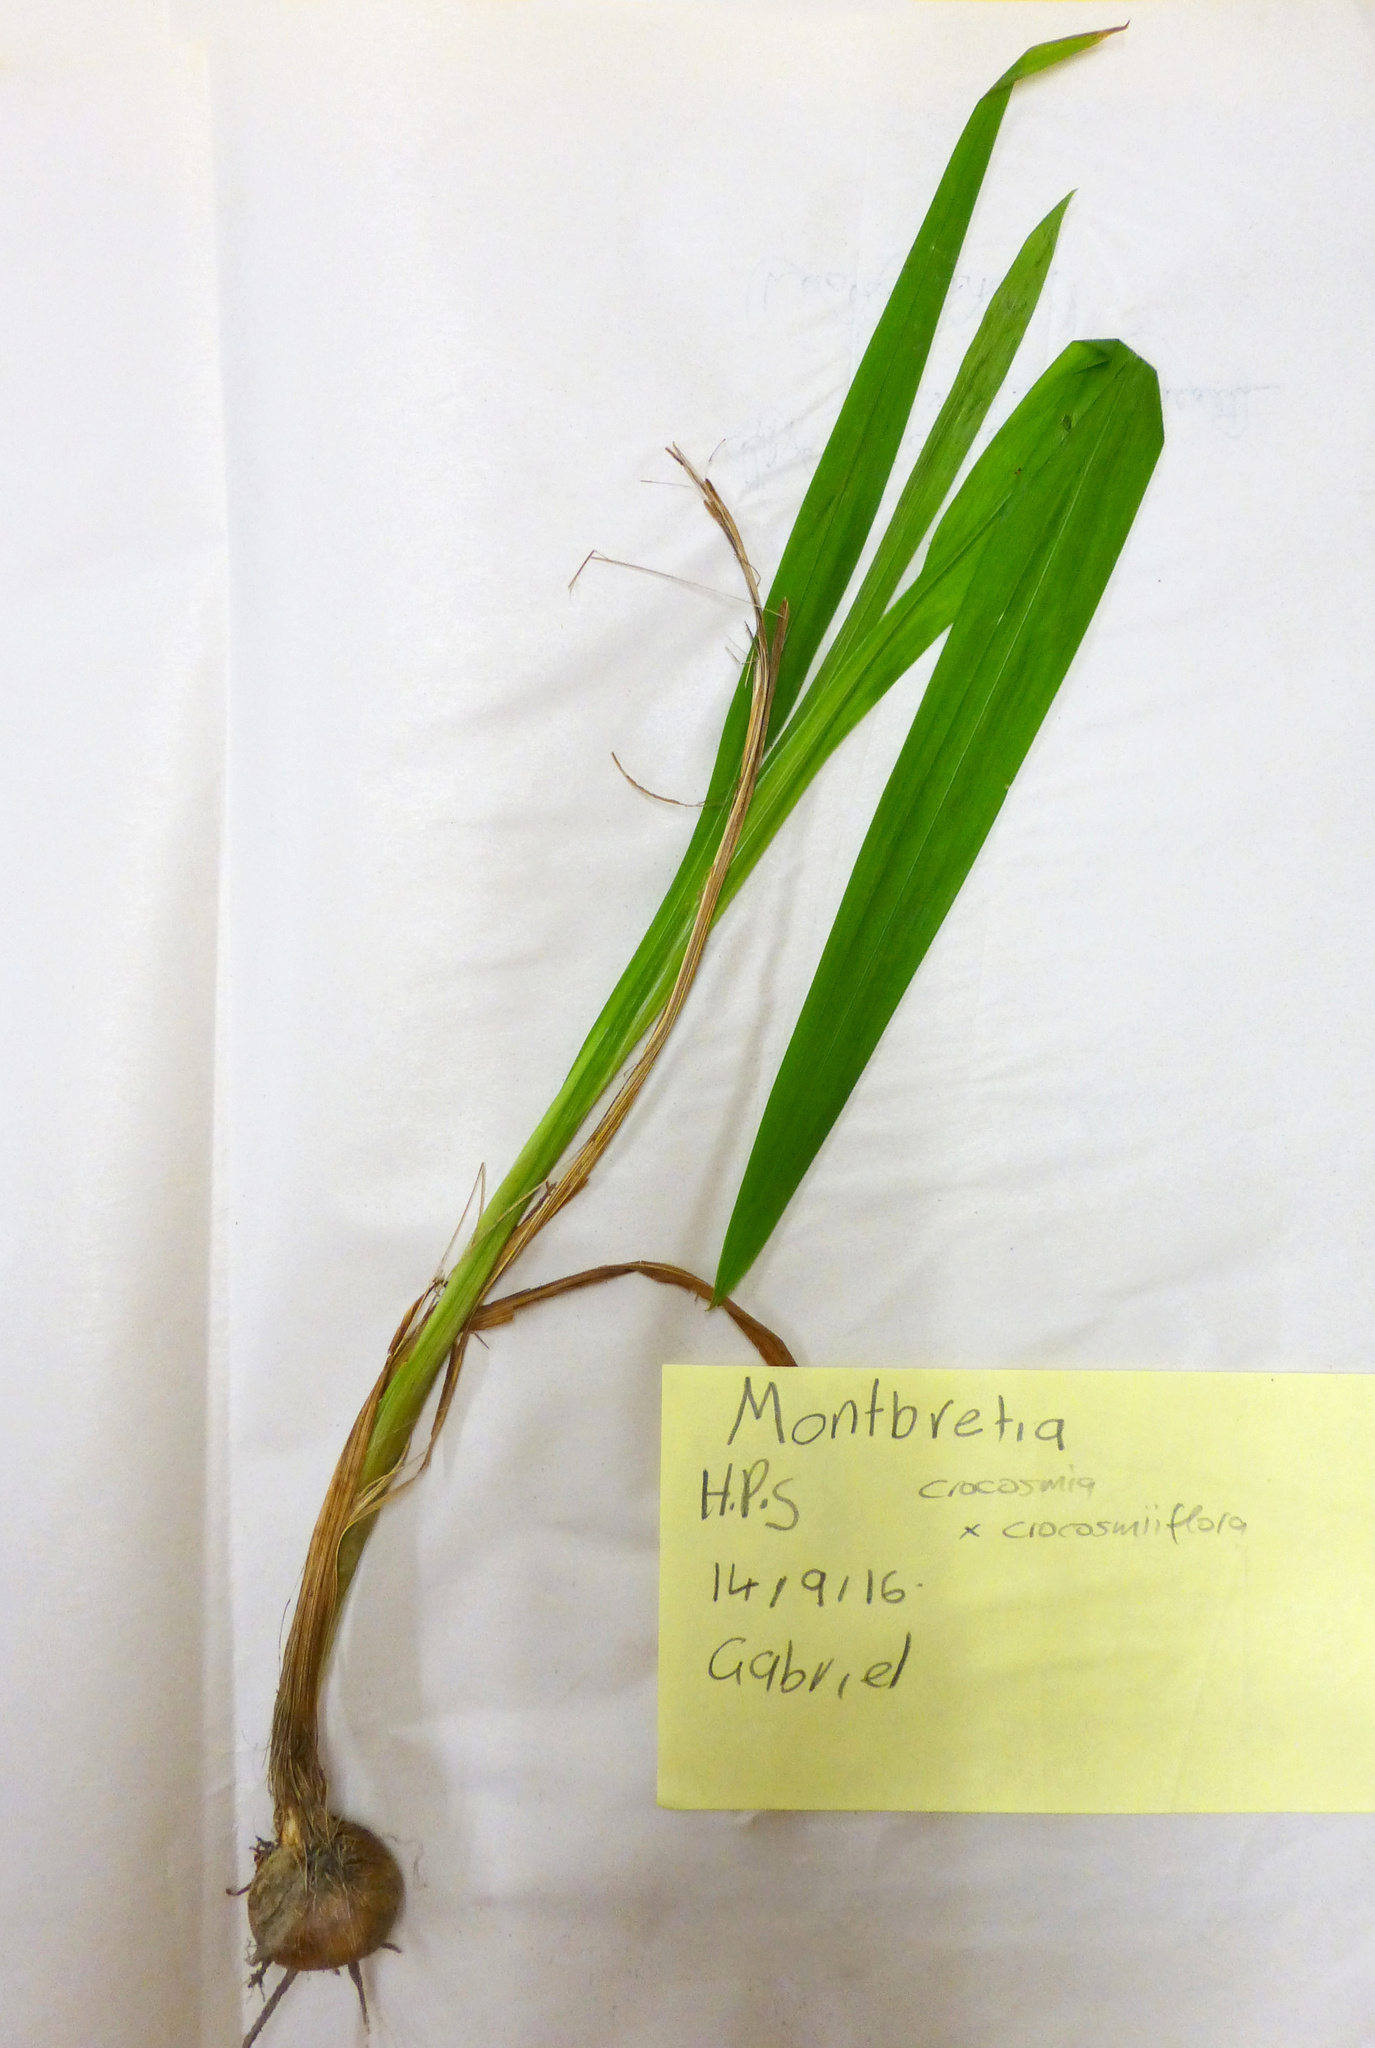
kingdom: Plantae
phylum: Tracheophyta
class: Liliopsida
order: Asparagales
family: Iridaceae
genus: Crocosmia
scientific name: Crocosmia crocosmiiflora
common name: Montbretia
